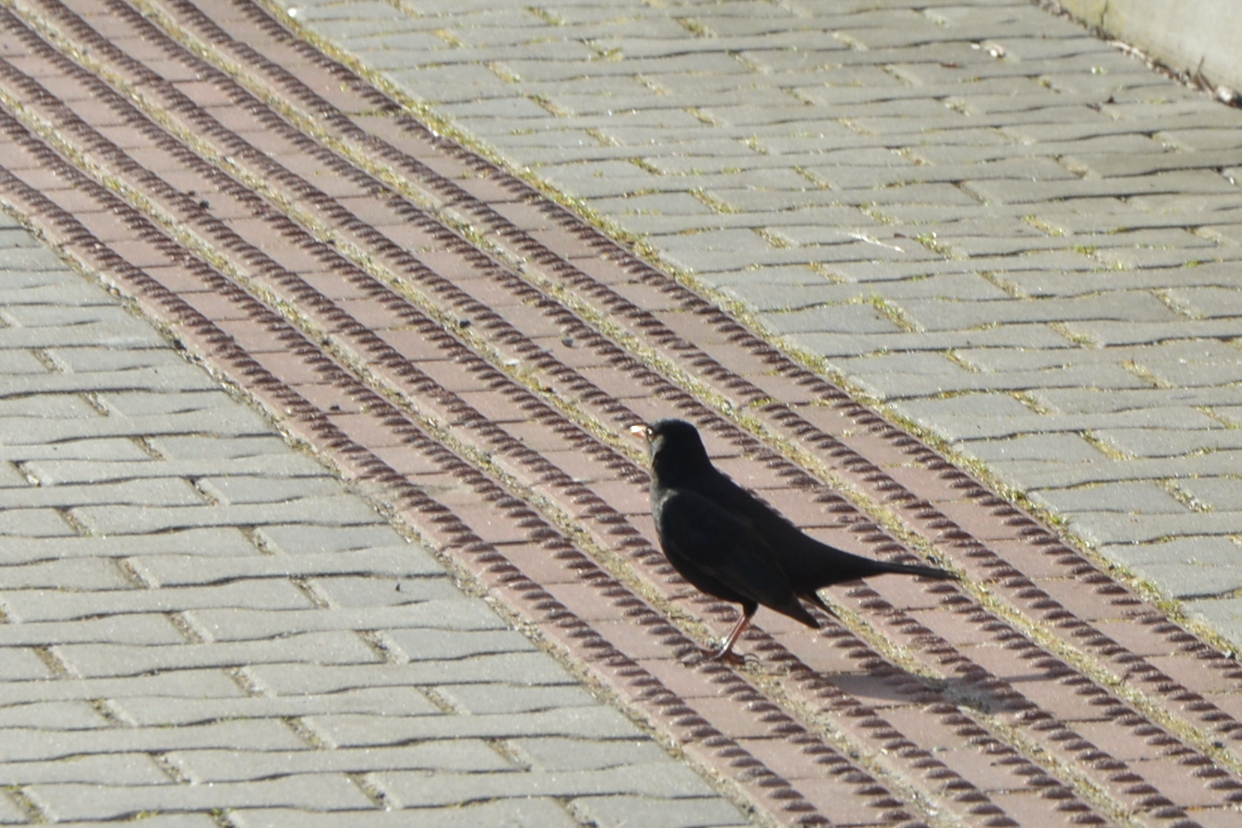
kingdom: Animalia
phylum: Chordata
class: Aves
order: Passeriformes
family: Turdidae
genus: Turdus
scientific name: Turdus merula
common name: Common blackbird
